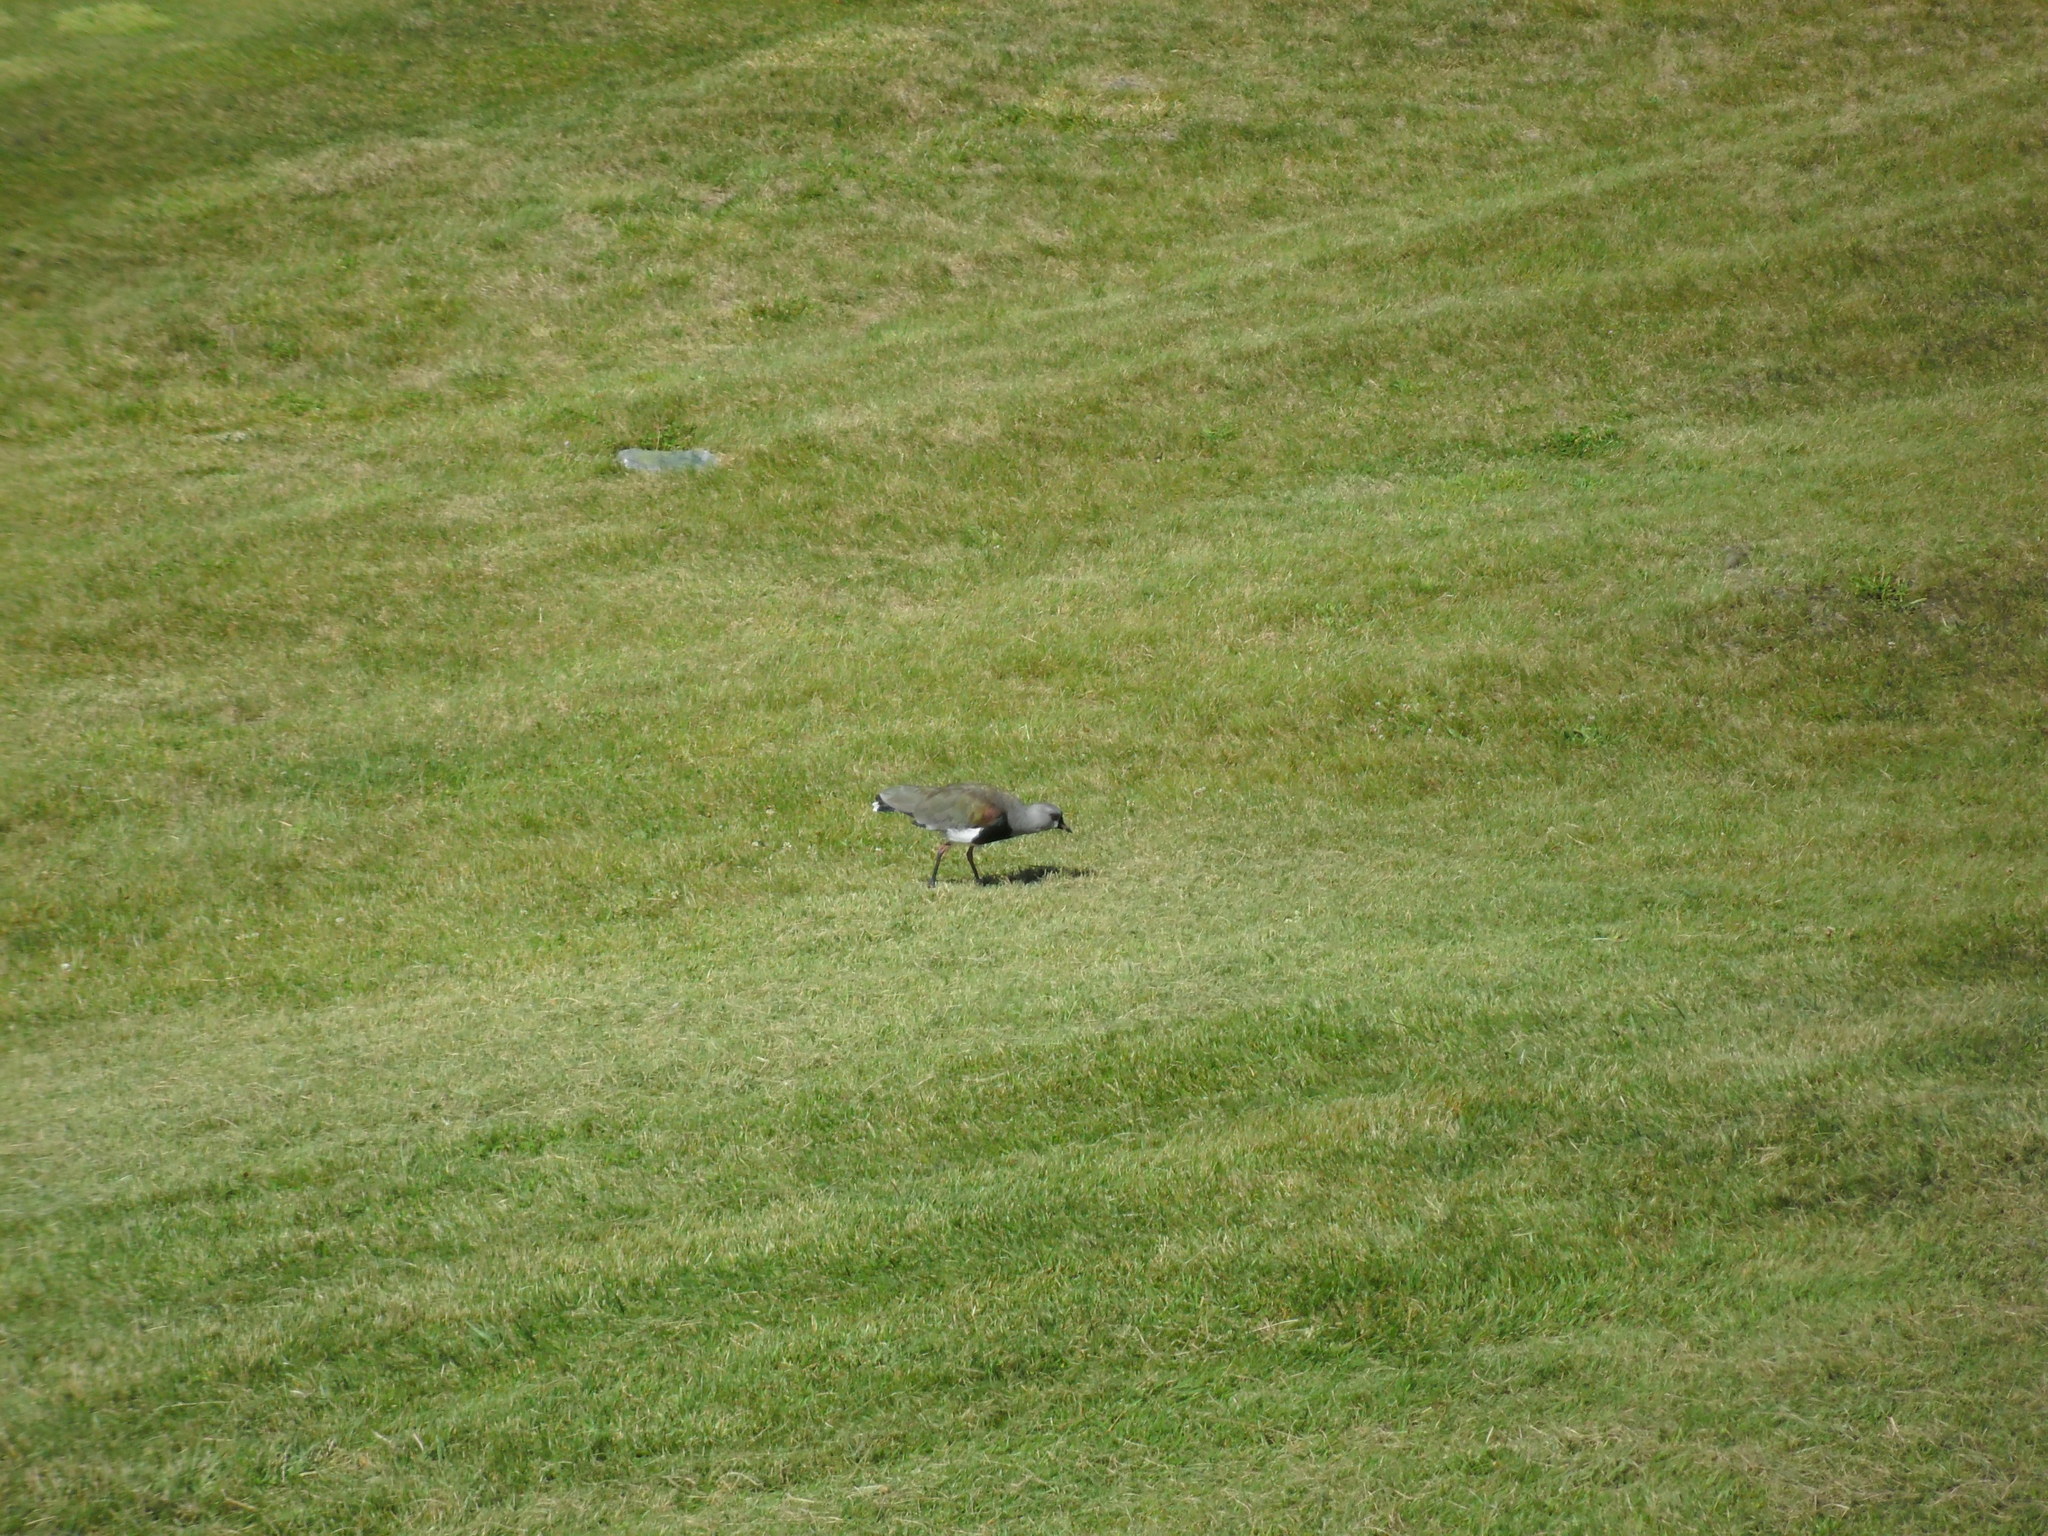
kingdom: Animalia
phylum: Chordata
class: Aves
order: Charadriiformes
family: Charadriidae
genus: Vanellus
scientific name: Vanellus chilensis
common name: Southern lapwing
